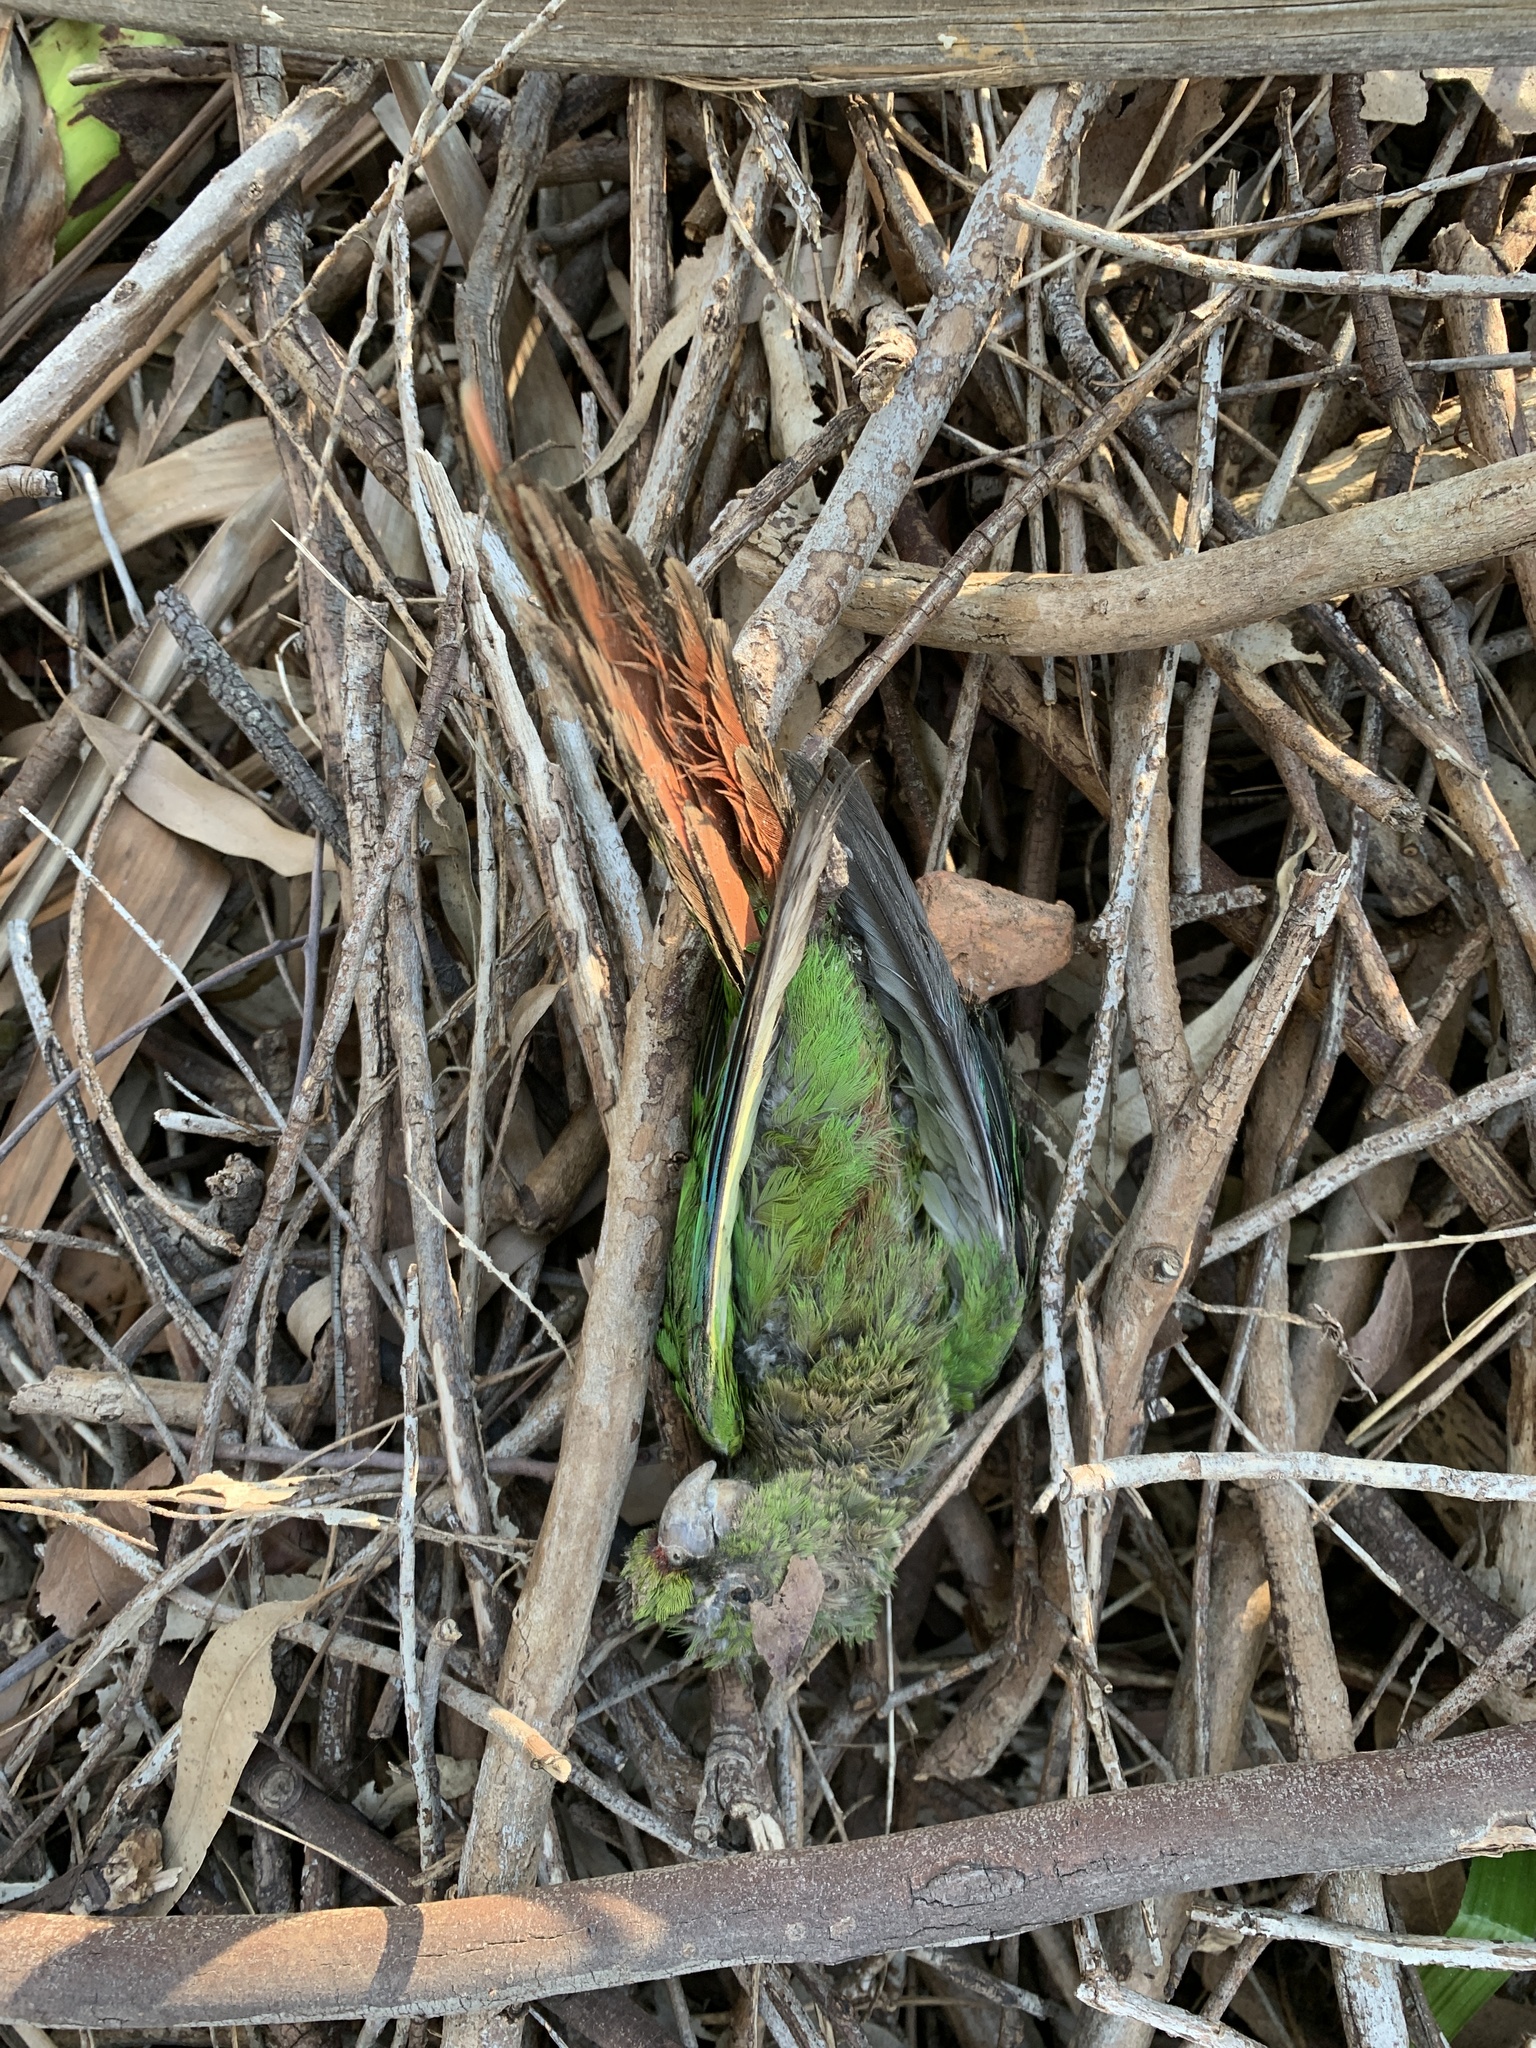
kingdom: Animalia
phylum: Chordata
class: Aves
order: Psittaciformes
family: Psittacidae
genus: Pyrrhura
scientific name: Pyrrhura frontalis
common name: Maroon-bellied parakeet
